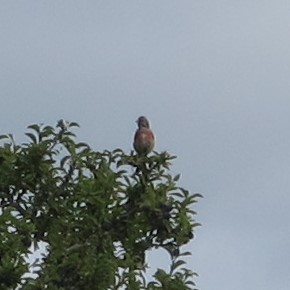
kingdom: Animalia
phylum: Chordata
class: Aves
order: Passeriformes
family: Fringillidae
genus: Linaria
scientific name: Linaria cannabina
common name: Common linnet
